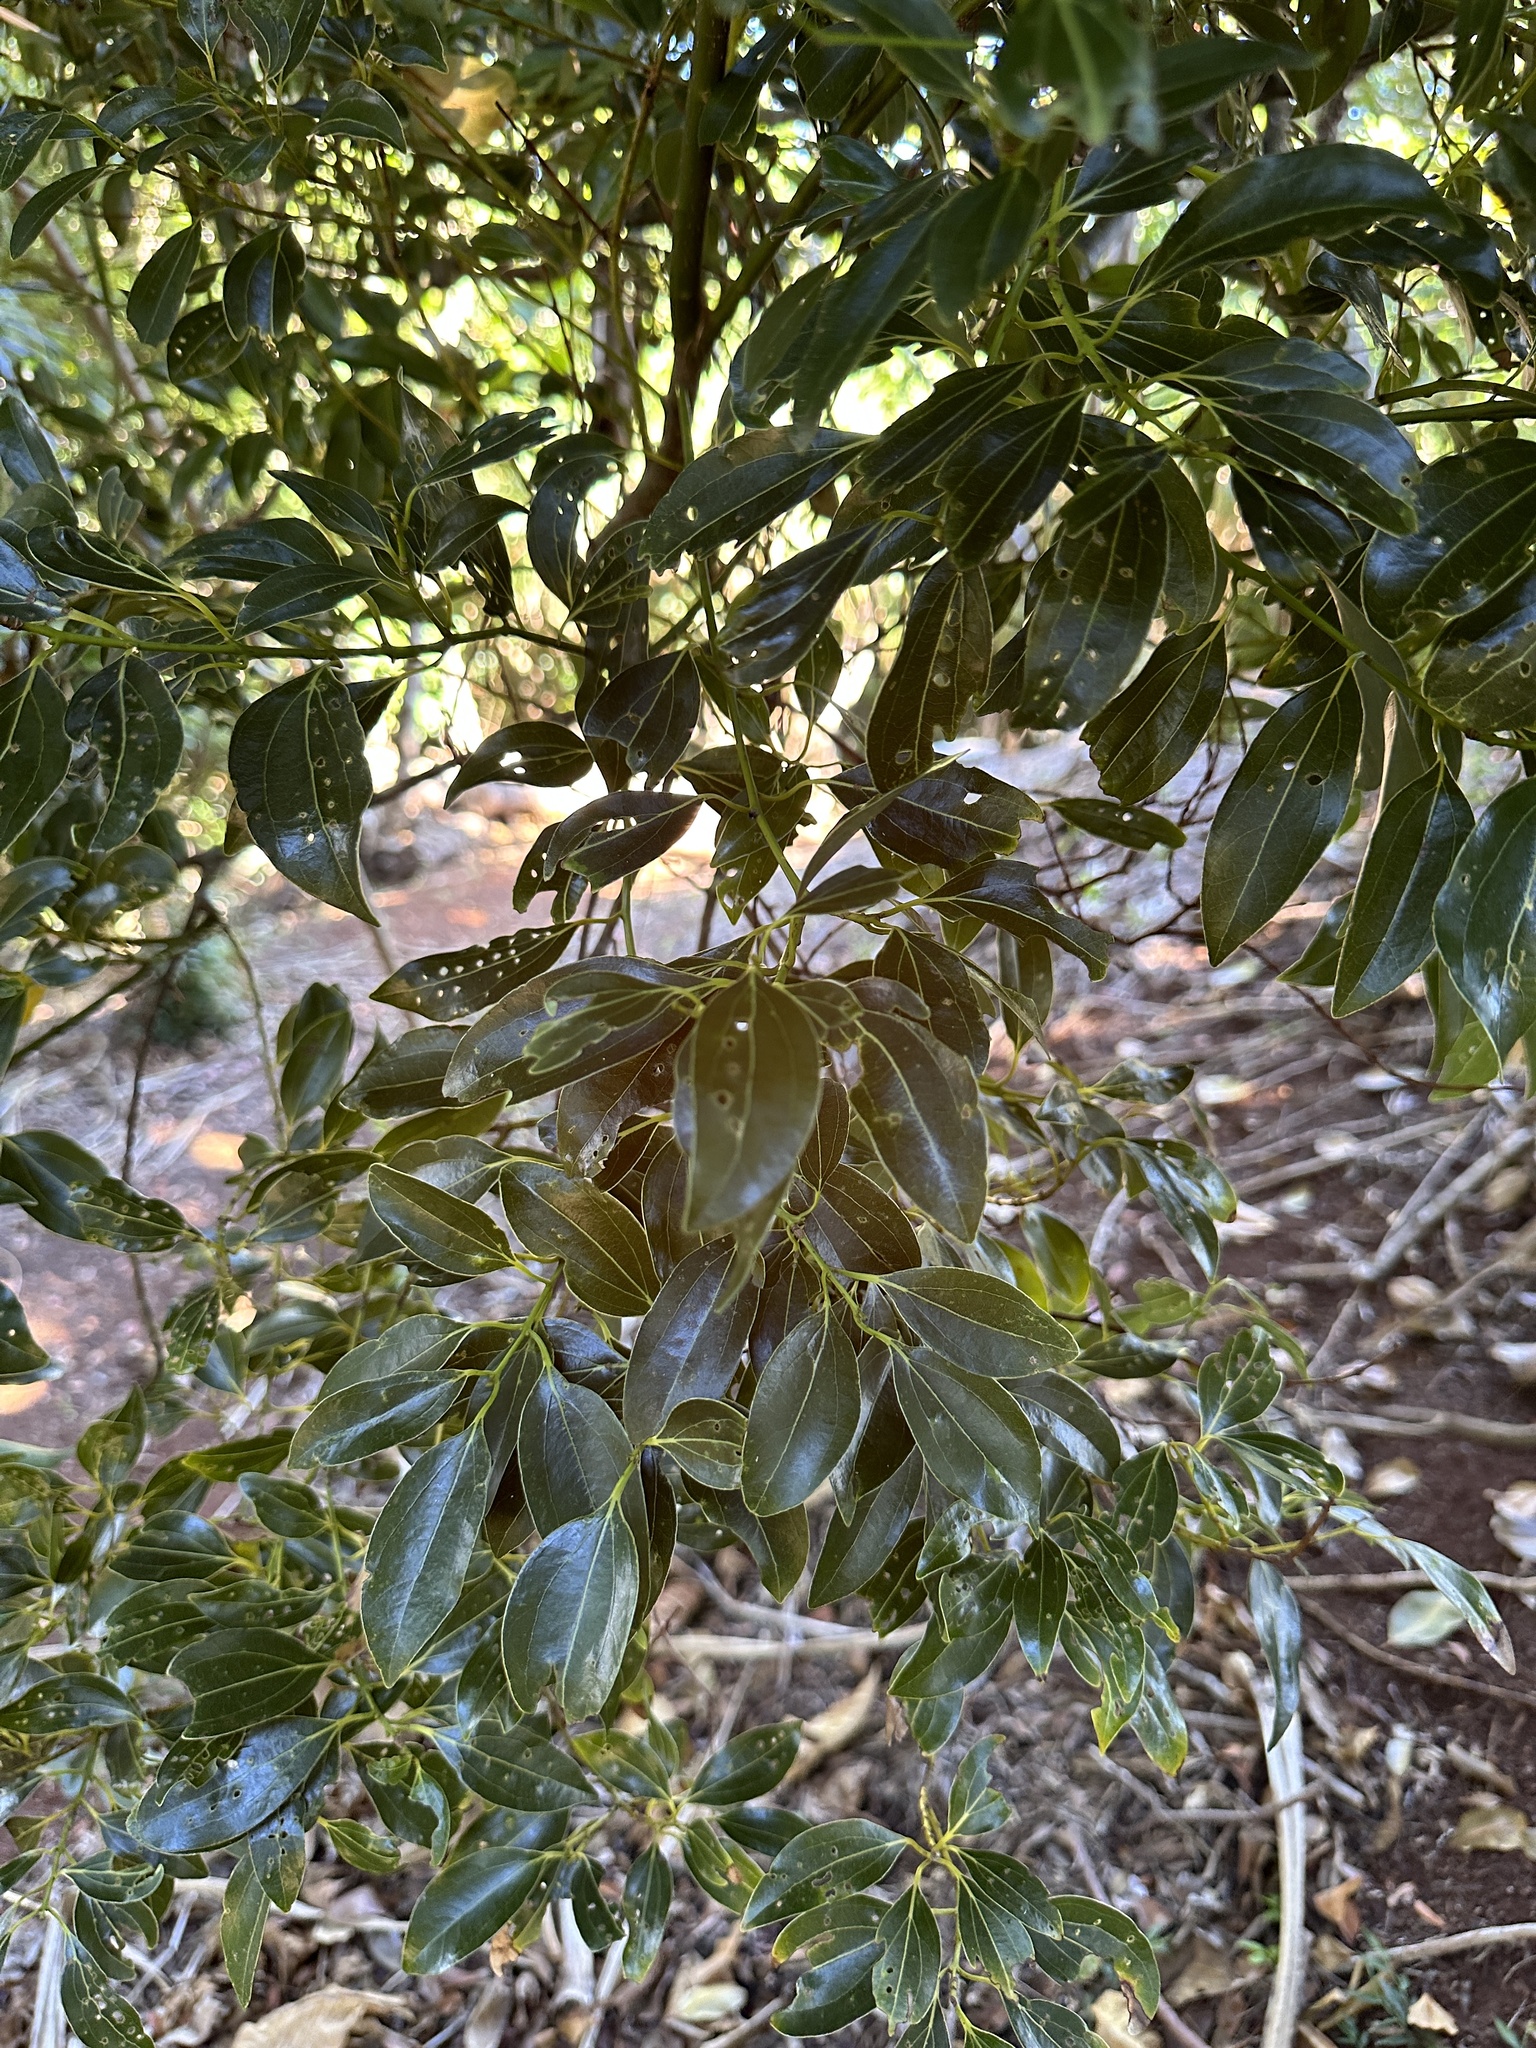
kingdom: Plantae
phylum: Tracheophyta
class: Magnoliopsida
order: Laurales
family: Lauraceae
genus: Cinnamomum
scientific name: Cinnamomum pseudopedunculatum
